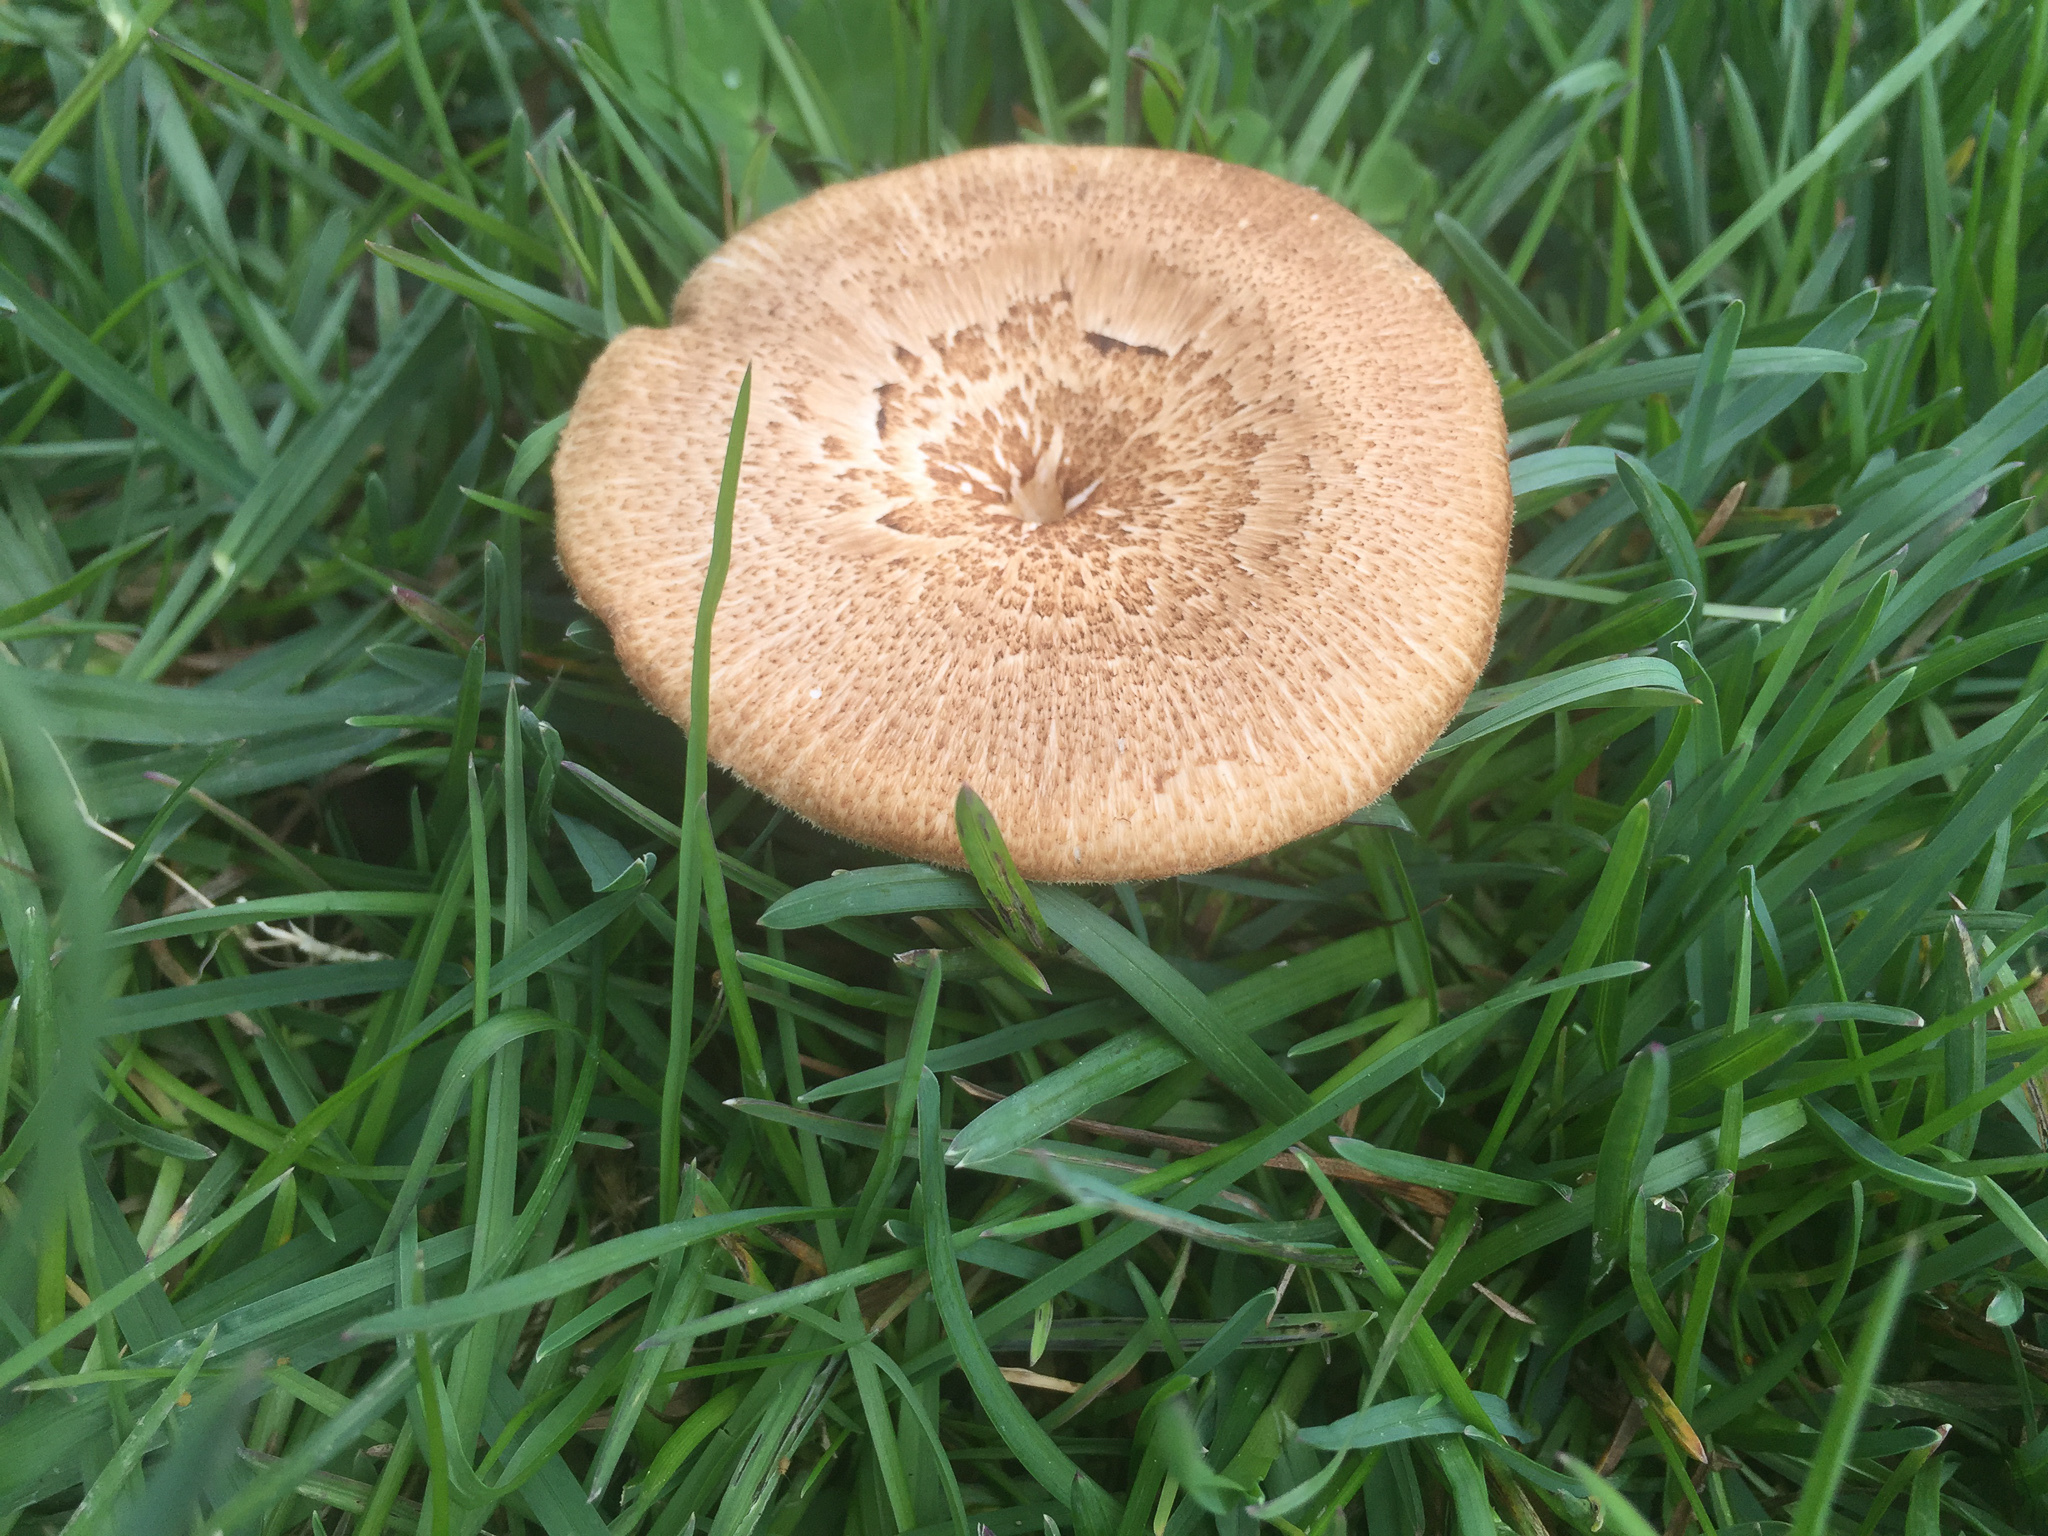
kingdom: Fungi
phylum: Basidiomycota
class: Agaricomycetes
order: Polyporales
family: Polyporaceae
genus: Lentinus
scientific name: Lentinus arcularius
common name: Spring polypore
